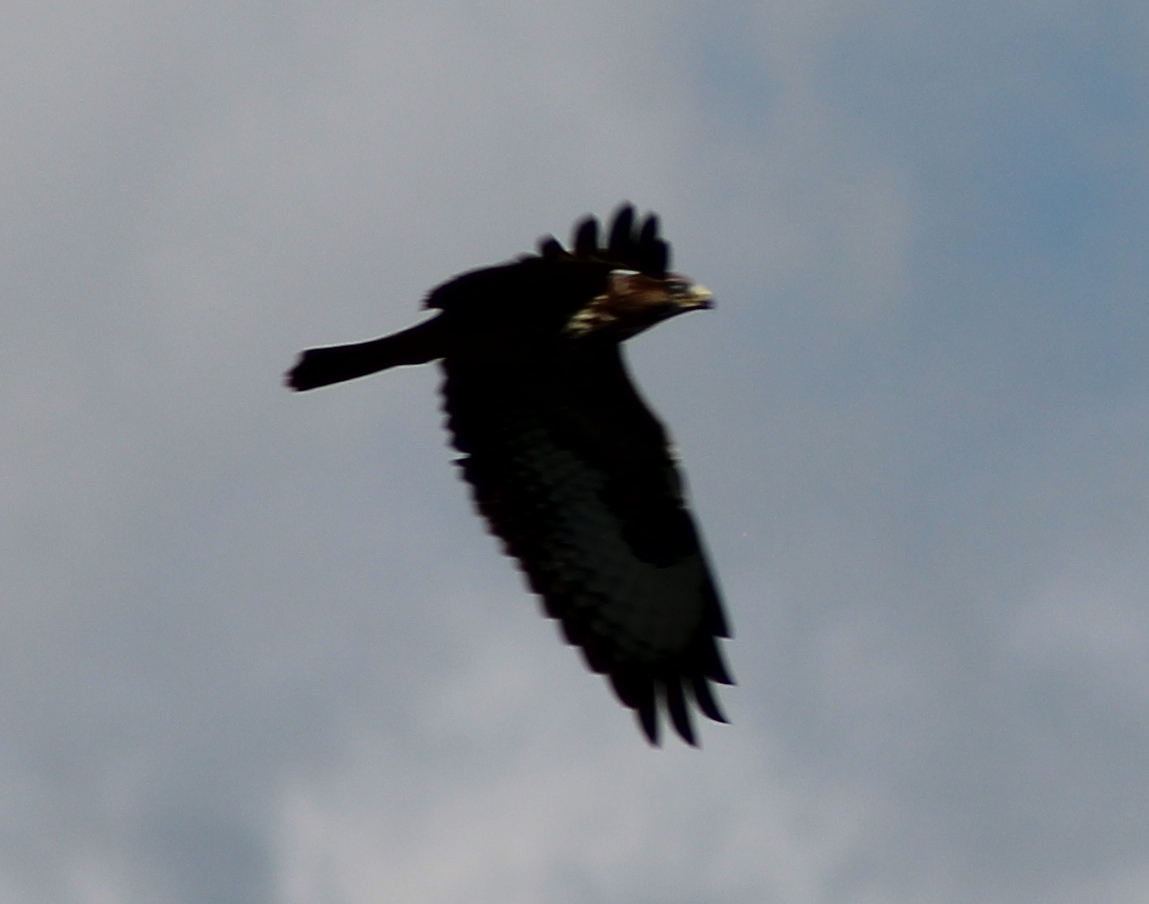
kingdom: Animalia
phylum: Chordata
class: Aves
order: Accipitriformes
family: Accipitridae
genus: Buteo
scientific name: Buteo buteo
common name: Common buzzard
